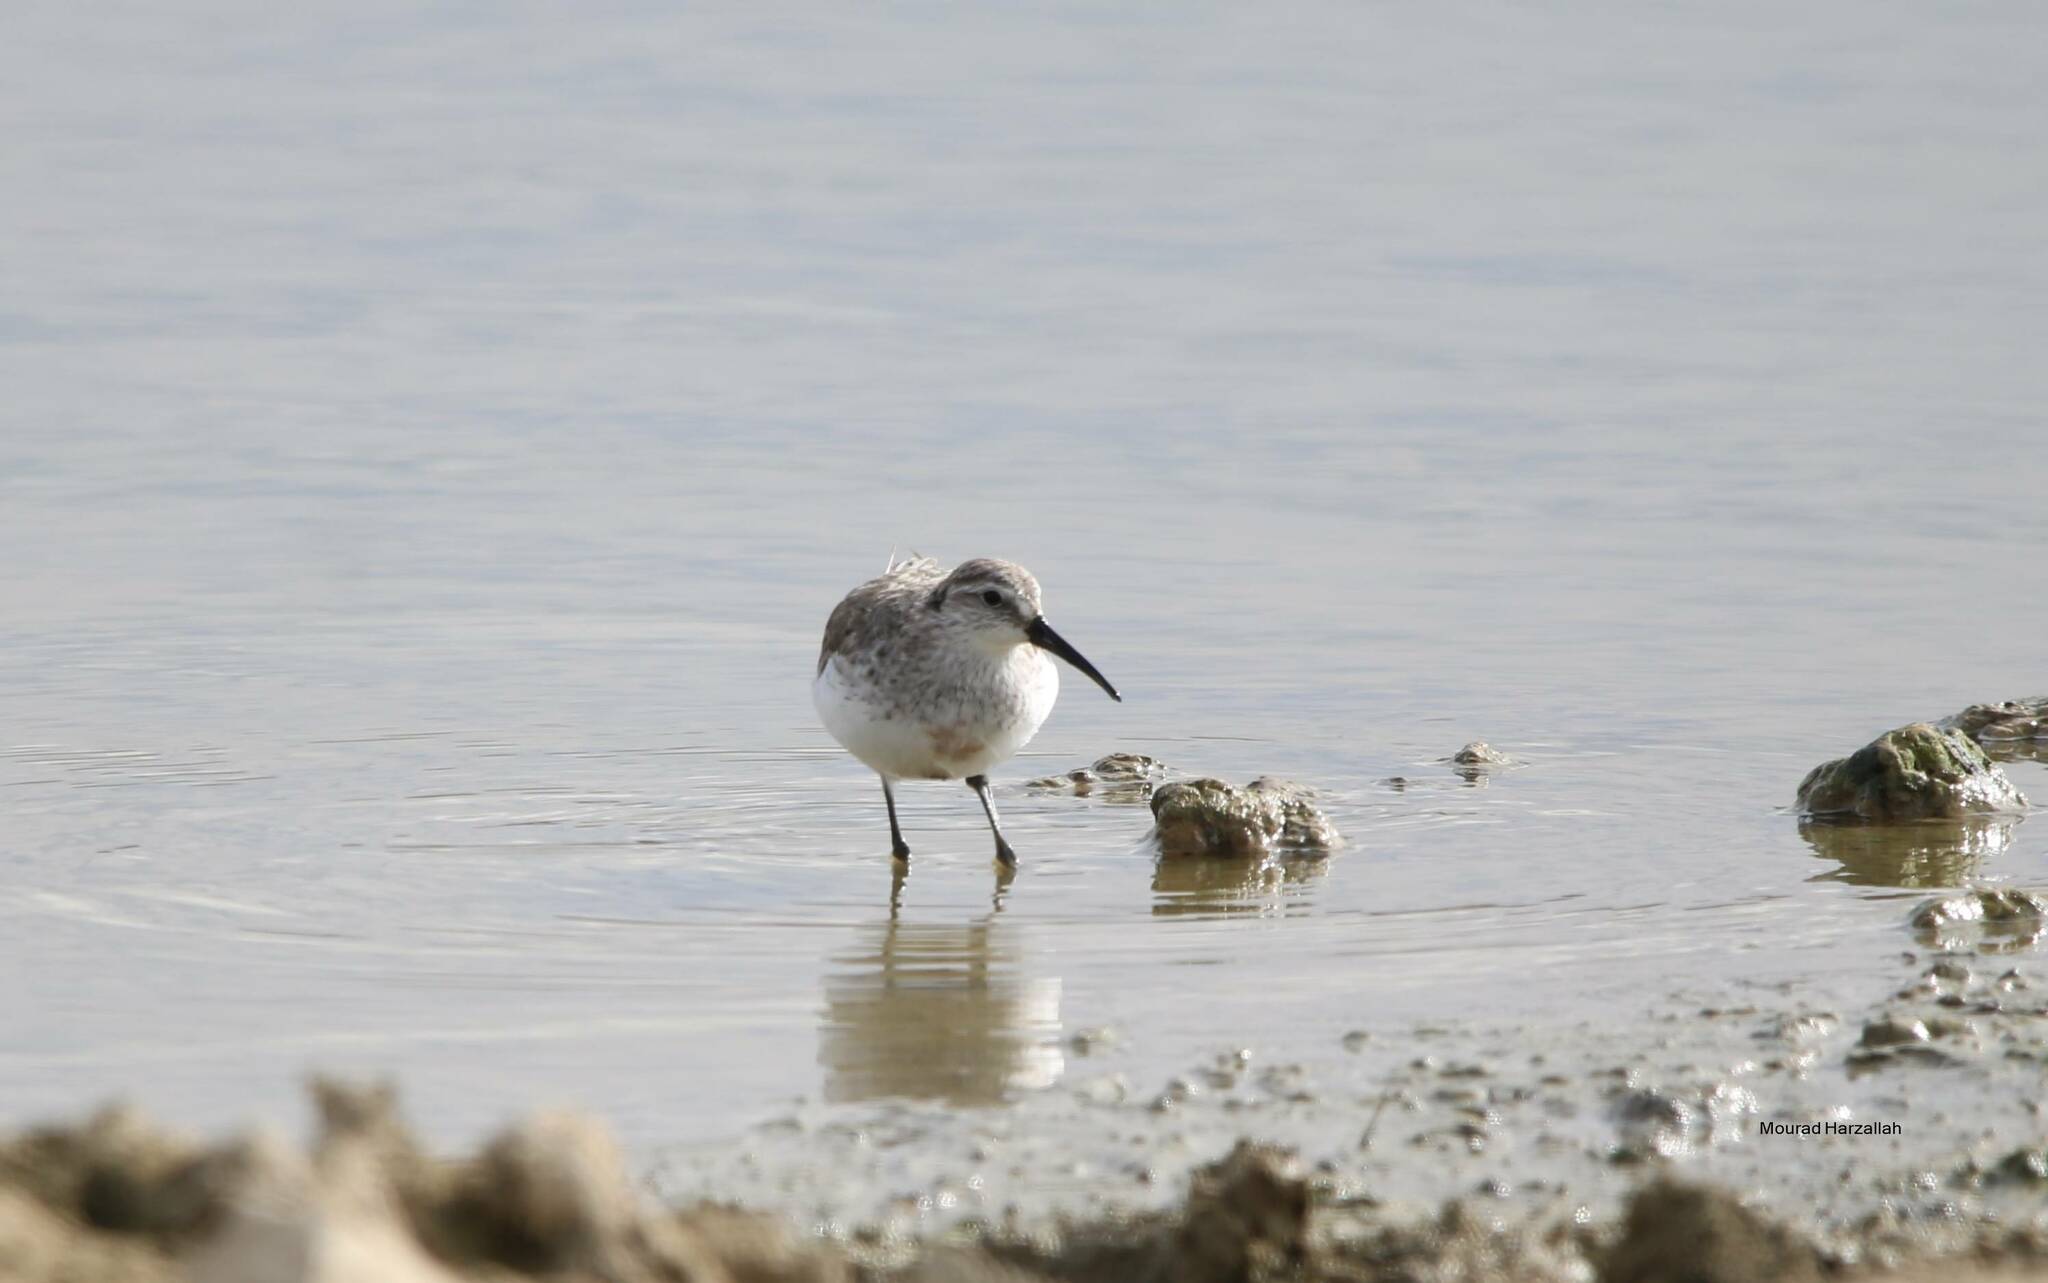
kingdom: Animalia
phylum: Chordata
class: Aves
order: Charadriiformes
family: Scolopacidae
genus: Calidris
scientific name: Calidris ferruginea
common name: Curlew sandpiper
